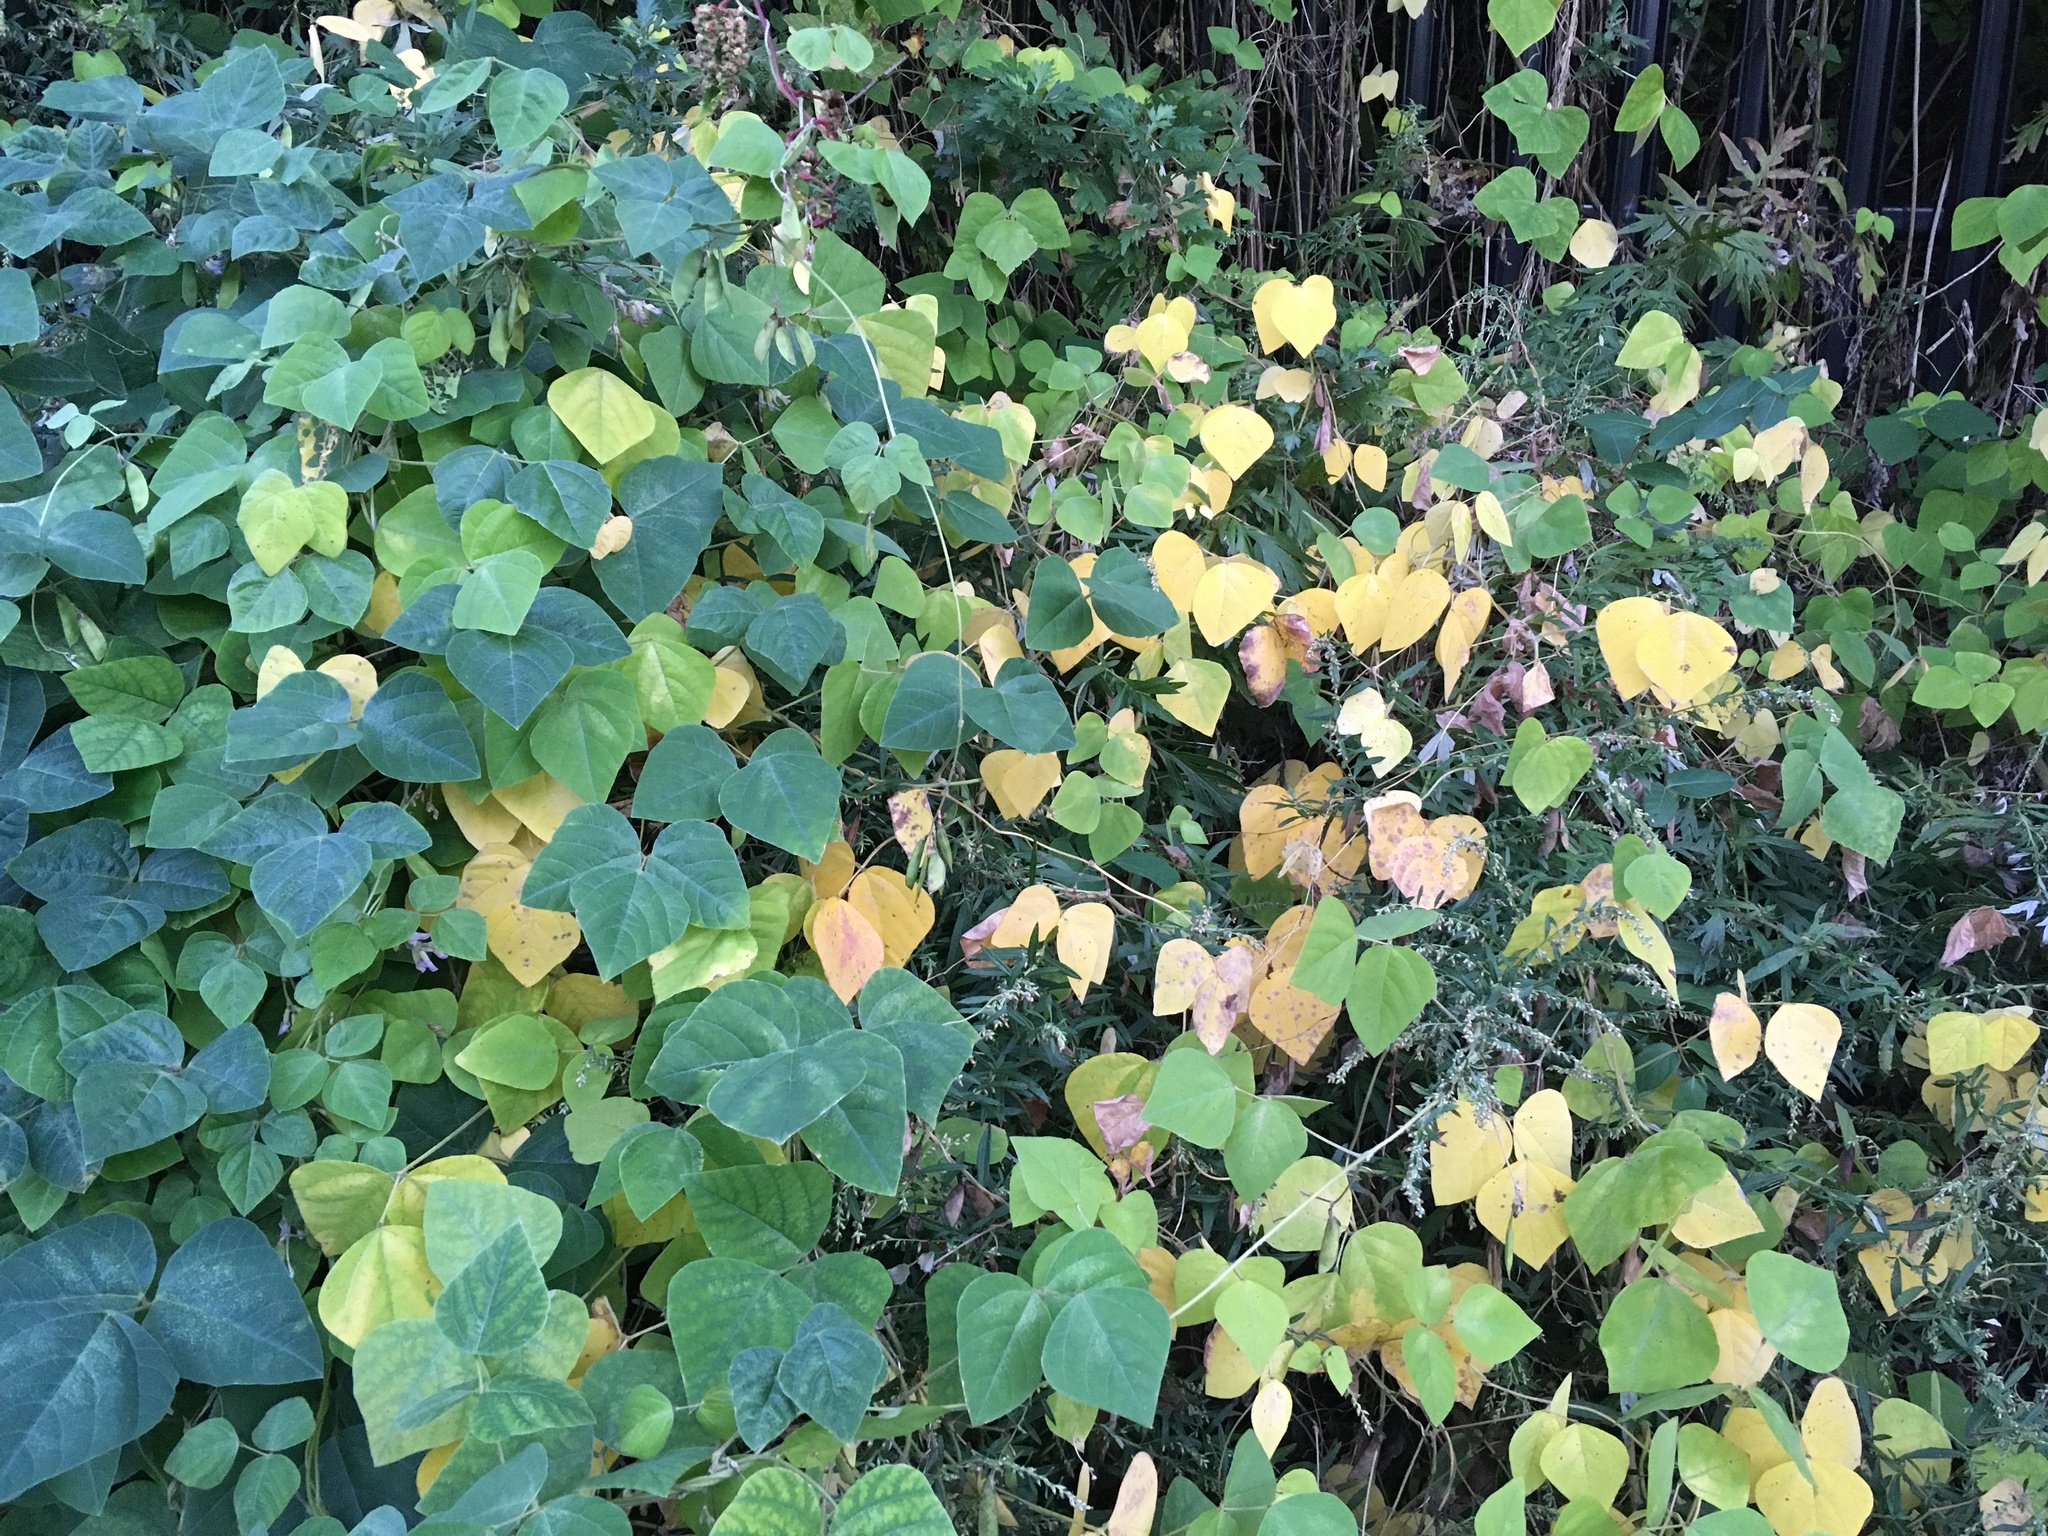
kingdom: Plantae
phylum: Tracheophyta
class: Magnoliopsida
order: Fabales
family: Fabaceae
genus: Amphicarpaea
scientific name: Amphicarpaea bracteata
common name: American hog peanut
